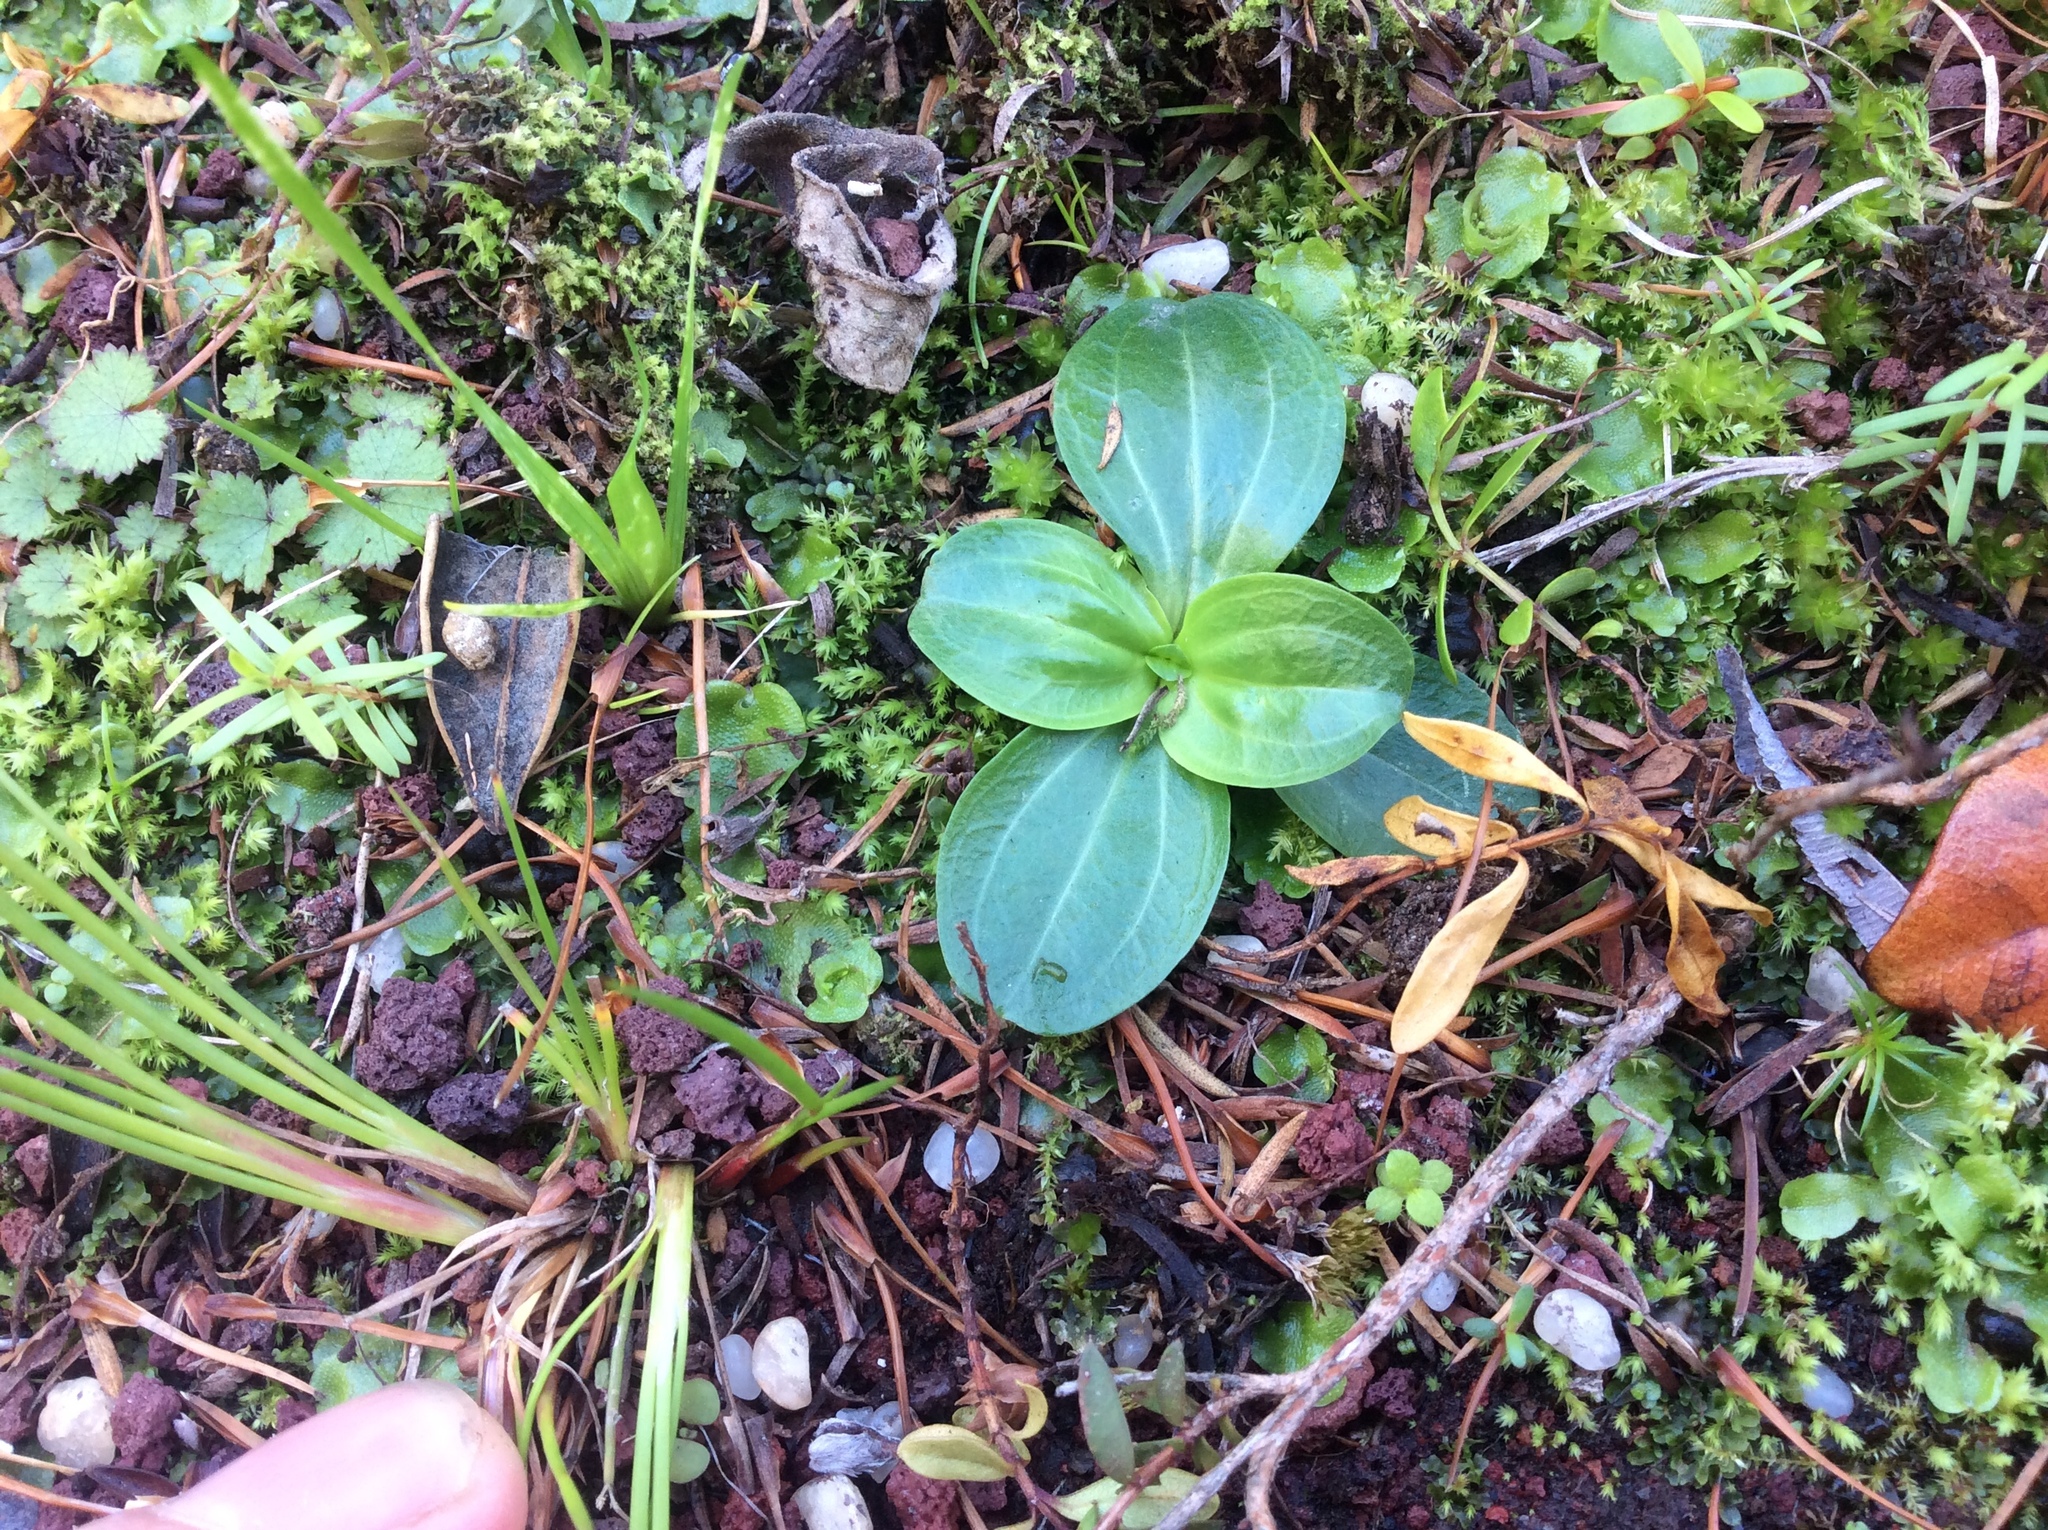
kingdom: Plantae
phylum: Tracheophyta
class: Magnoliopsida
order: Gentianales
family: Gentianaceae
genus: Centaurium
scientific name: Centaurium erythraea
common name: Common centaury
